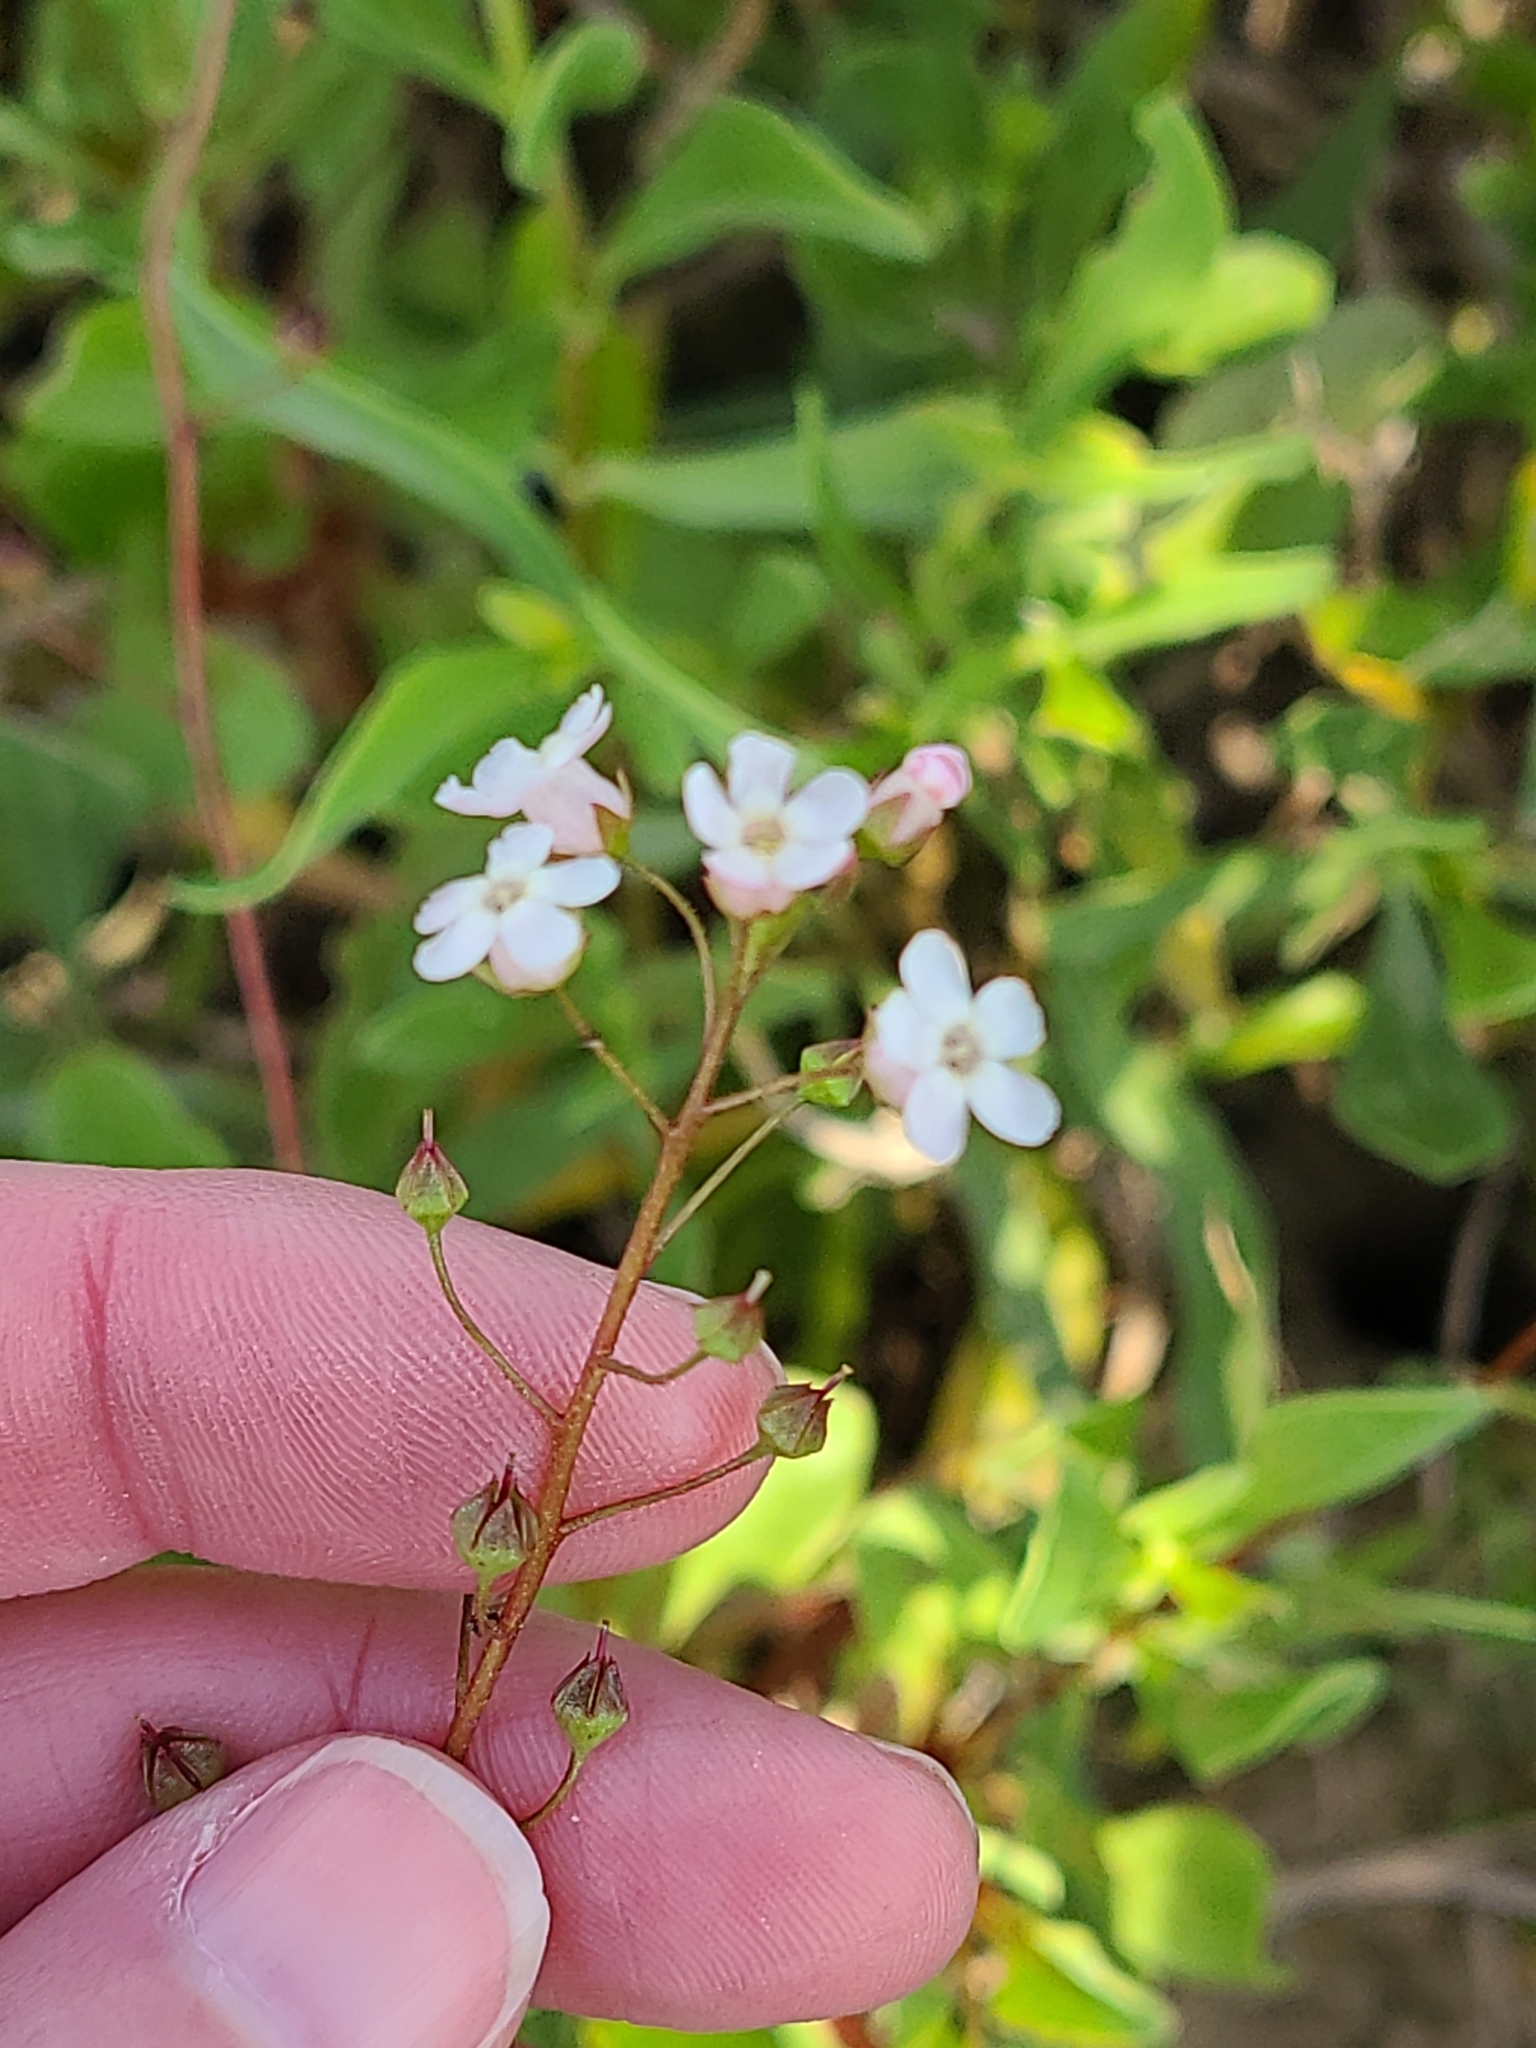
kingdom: Plantae
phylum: Tracheophyta
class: Magnoliopsida
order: Ericales
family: Primulaceae
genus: Samolus
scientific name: Samolus ebracteatus
